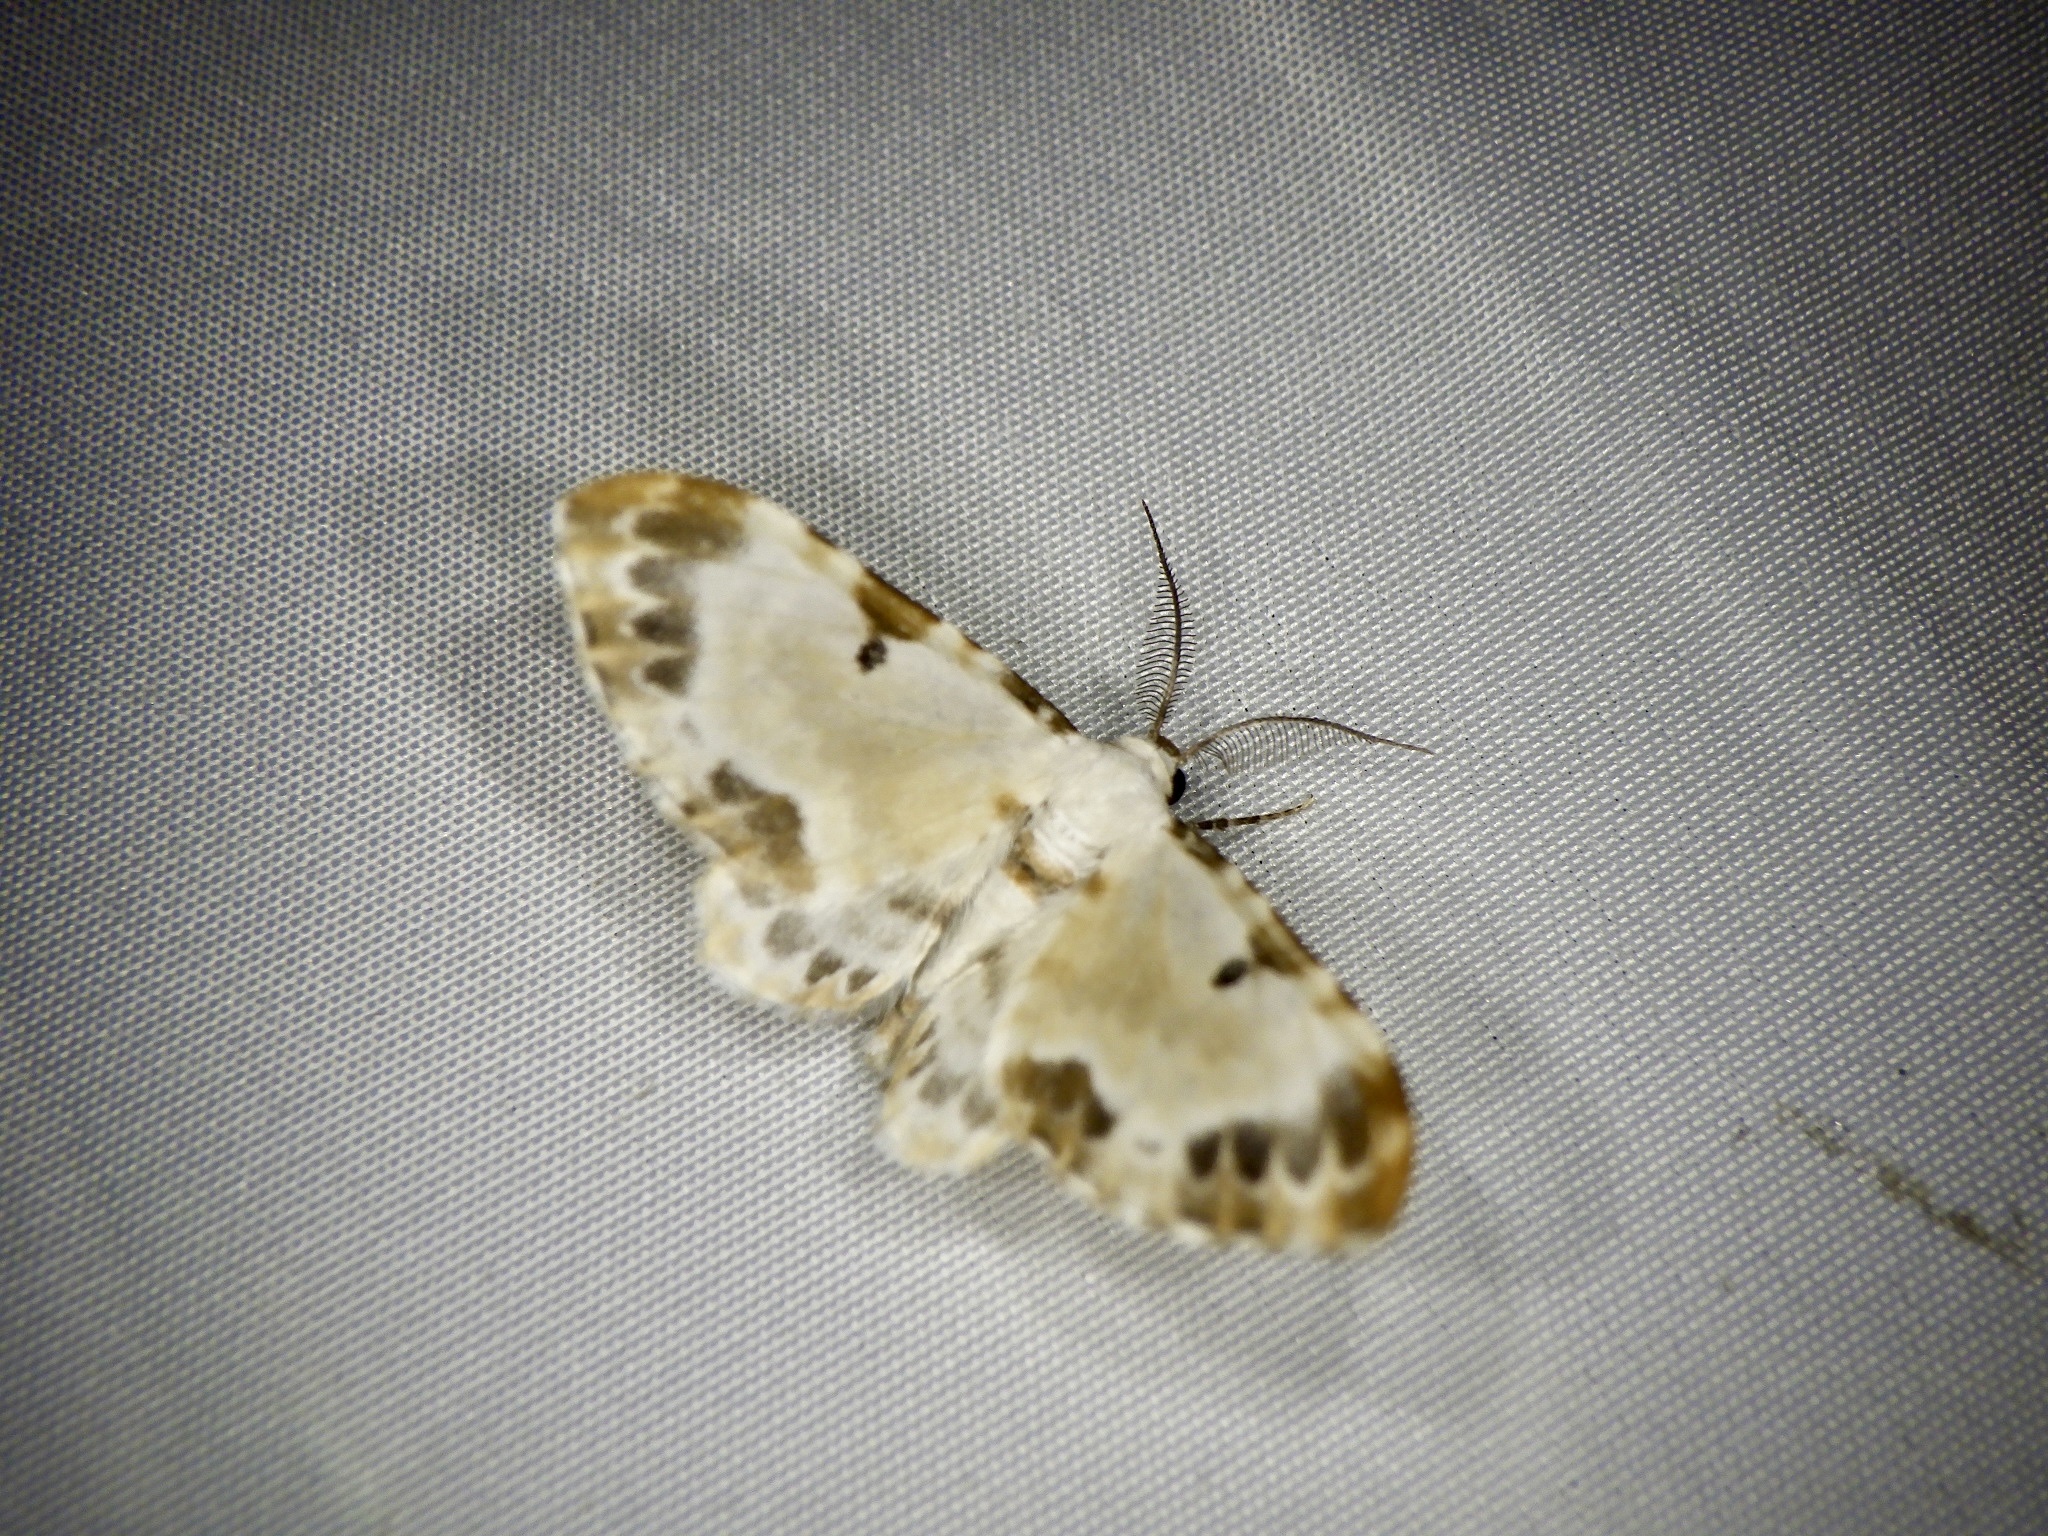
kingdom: Animalia
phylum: Arthropoda
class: Insecta
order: Lepidoptera
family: Geometridae
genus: Tyloptera
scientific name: Tyloptera bella
